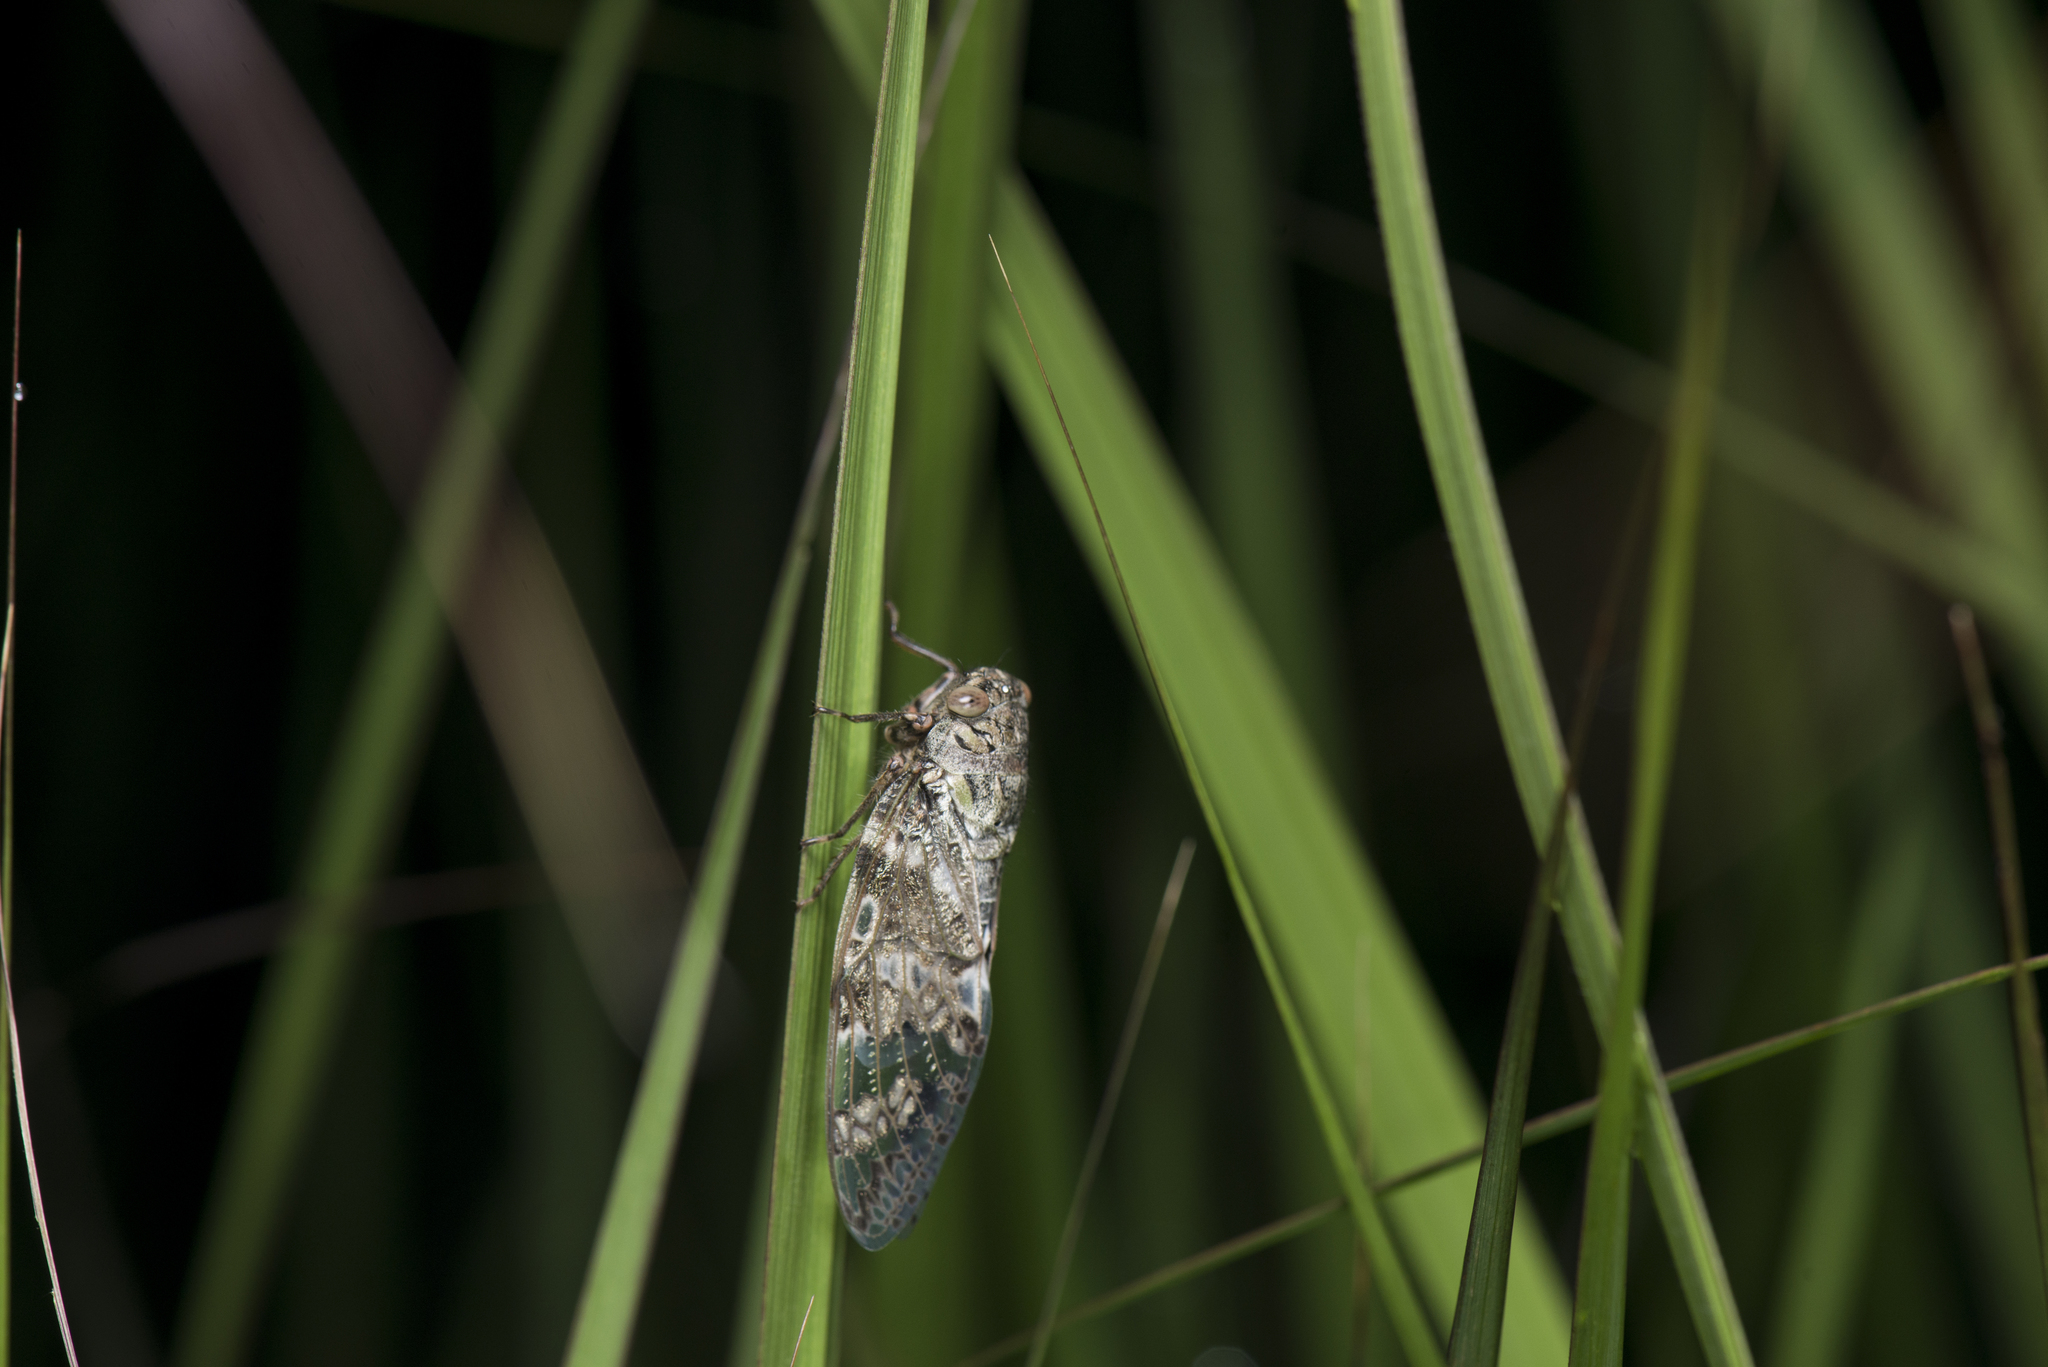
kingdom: Animalia
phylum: Arthropoda
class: Insecta
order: Hemiptera
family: Cicadidae
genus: Platypleura
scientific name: Platypleura takasagona
